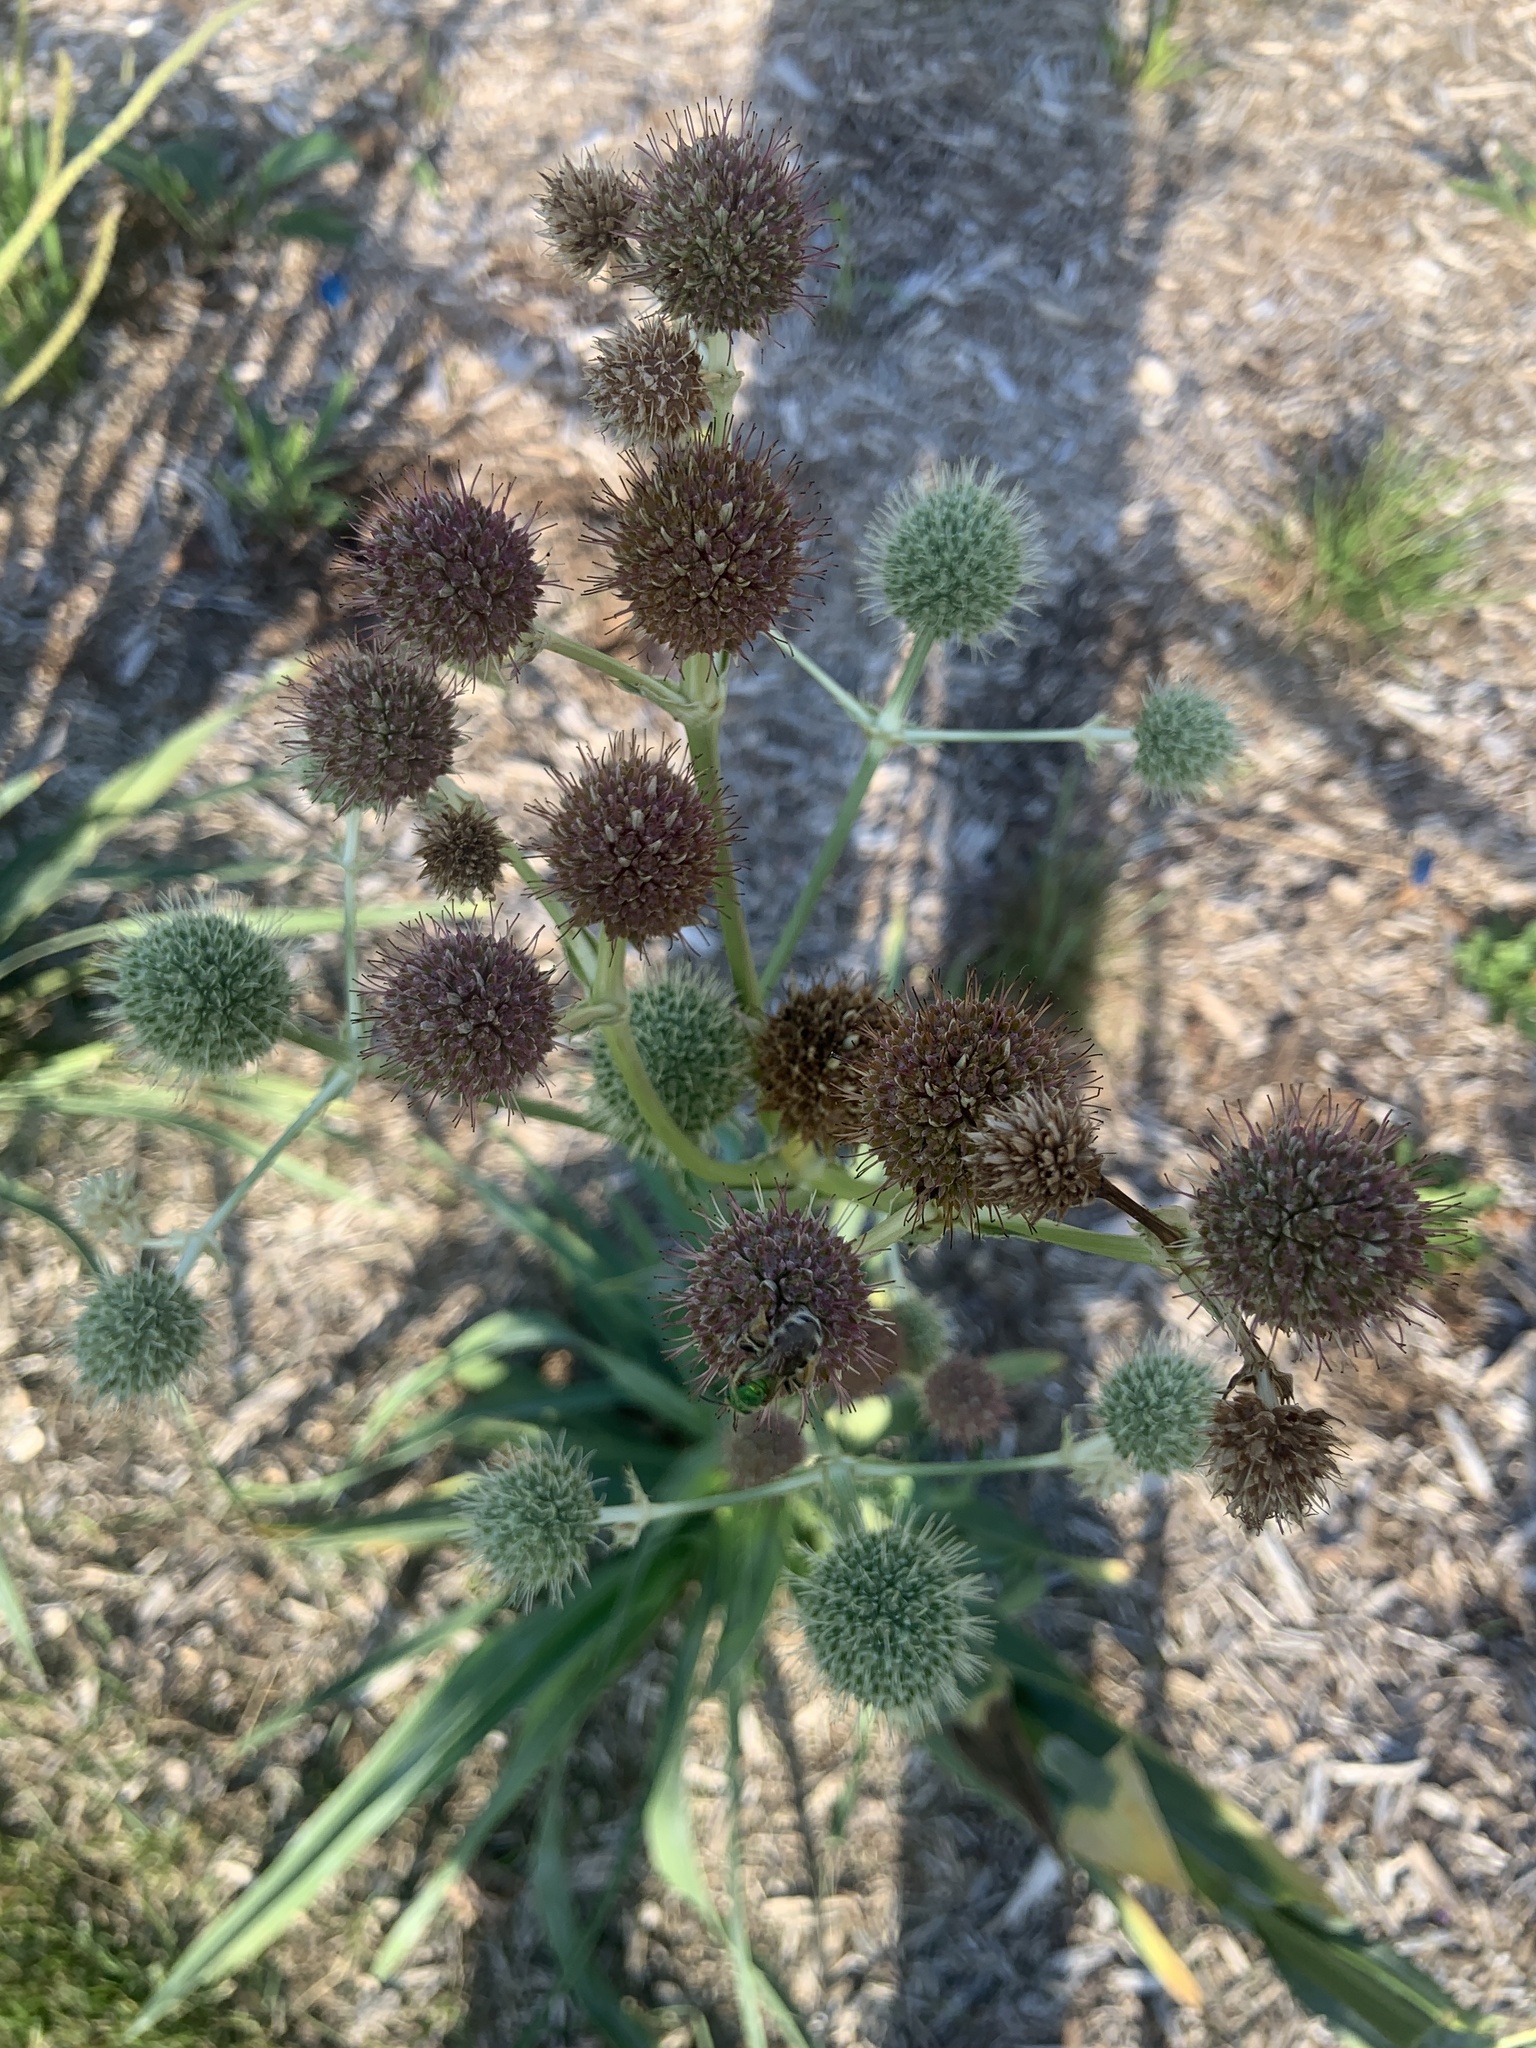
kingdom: Animalia
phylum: Arthropoda
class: Insecta
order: Hymenoptera
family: Halictidae
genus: Agapostemon
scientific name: Agapostemon virescens
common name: Bicolored striped sweat bee
